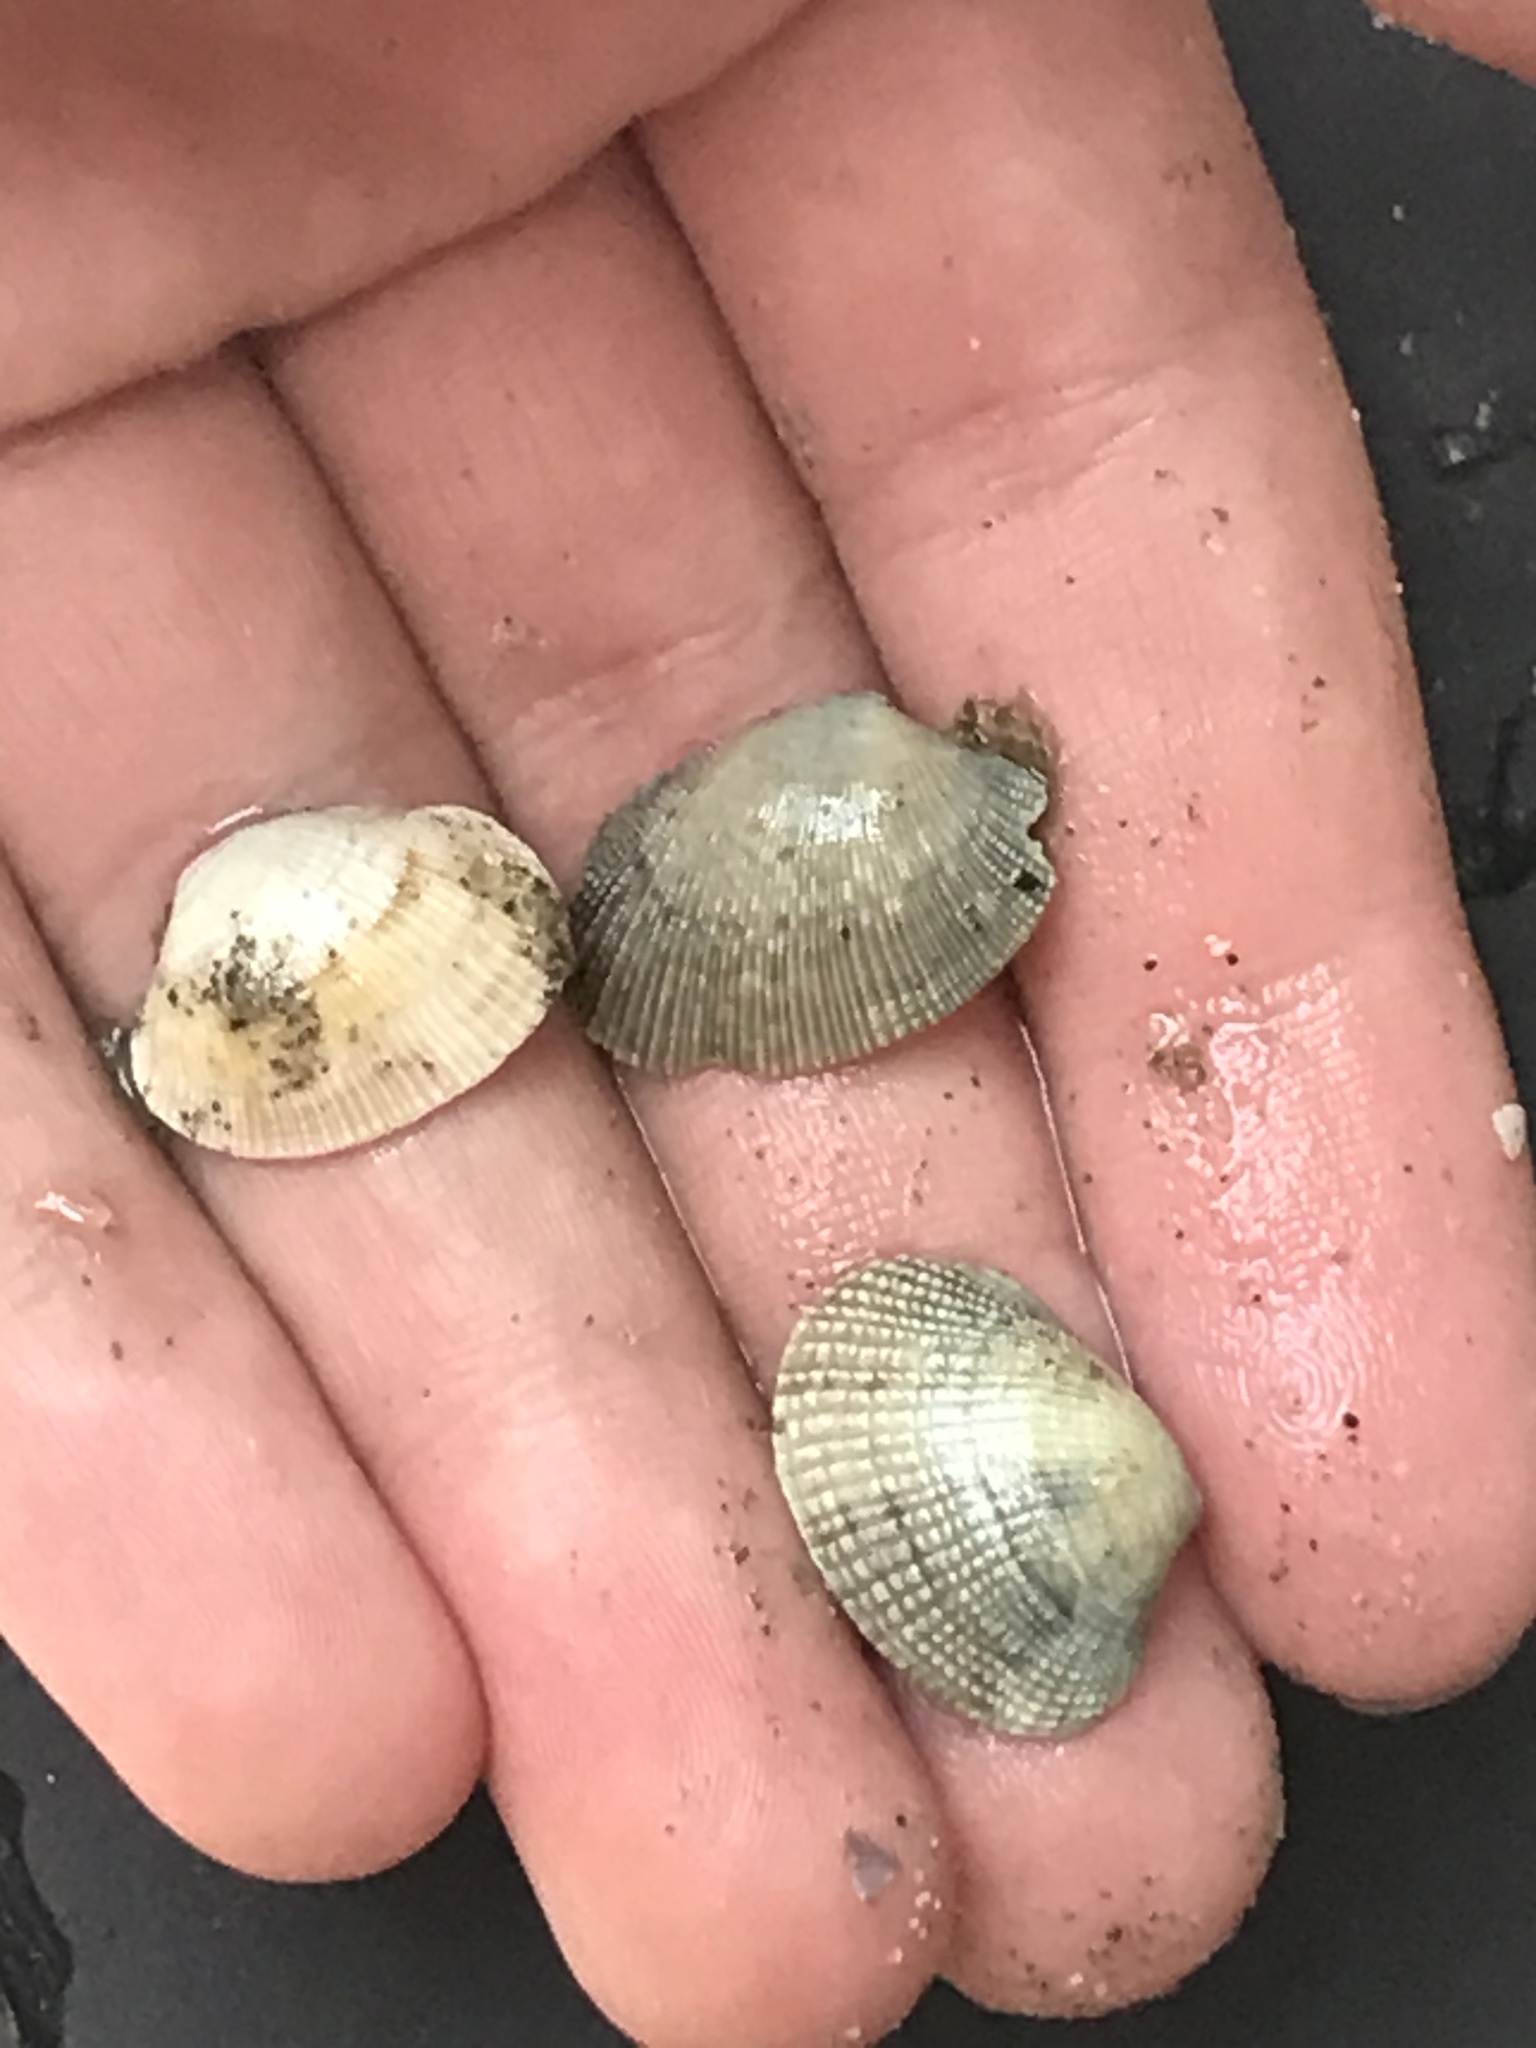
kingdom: Animalia
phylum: Mollusca
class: Bivalvia
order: Venerida
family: Veneridae
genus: Ruditapes
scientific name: Ruditapes philippinarum
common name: Manila clam
